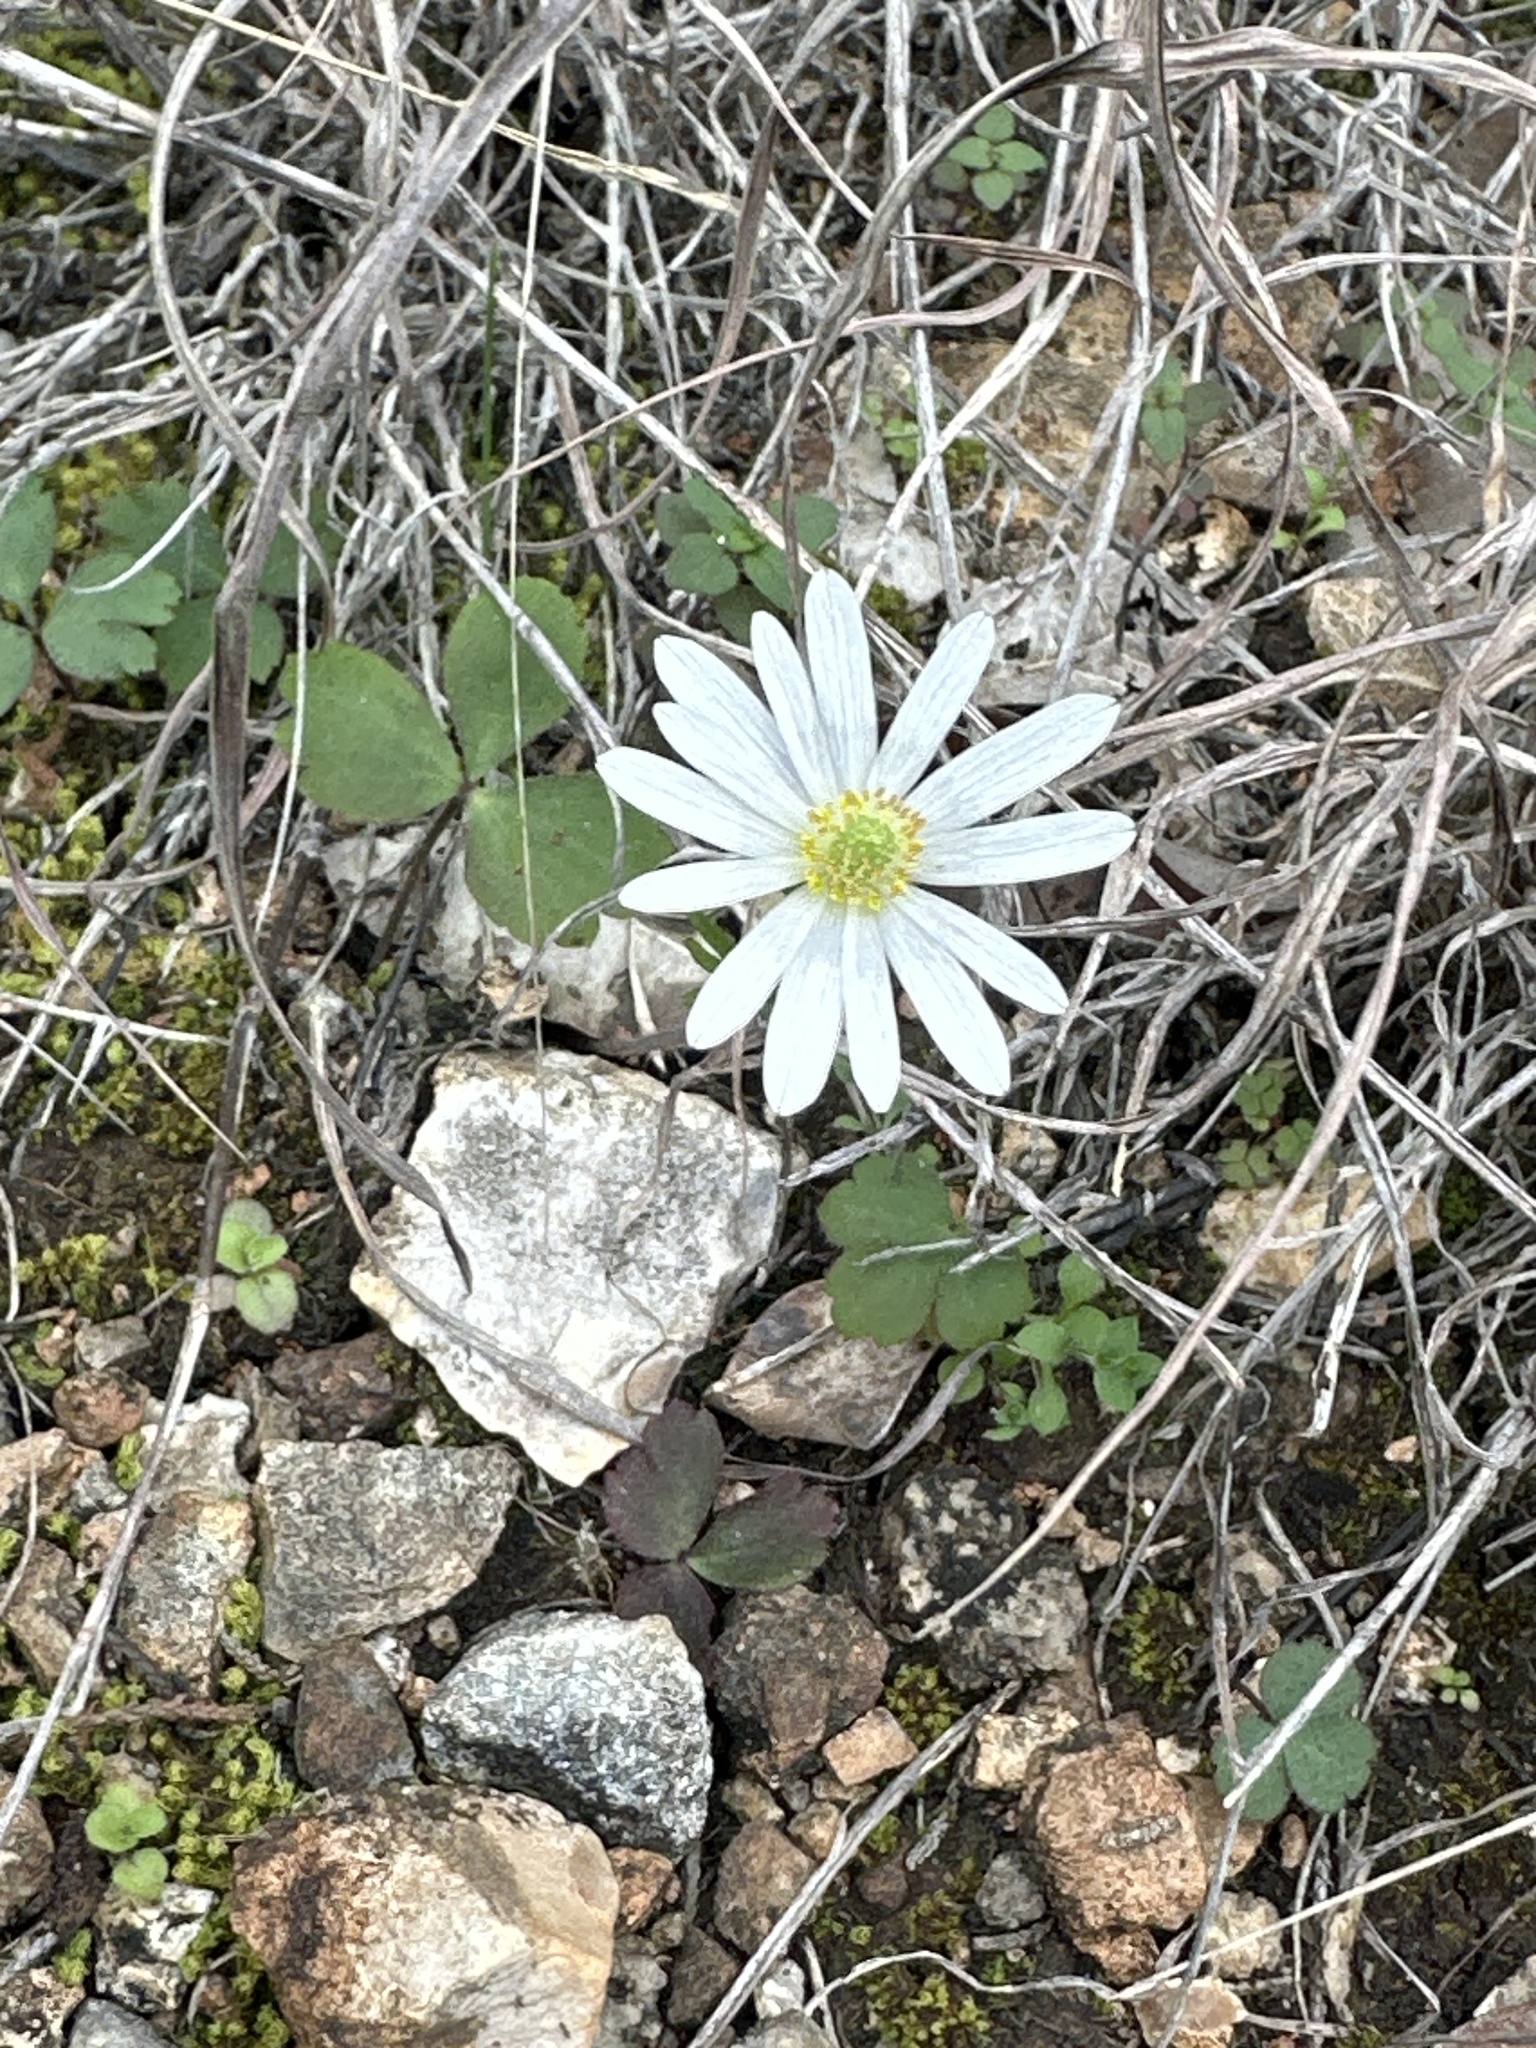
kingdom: Plantae
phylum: Tracheophyta
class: Magnoliopsida
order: Ranunculales
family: Ranunculaceae
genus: Anemone
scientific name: Anemone berlandieri
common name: Ten-petal anemone
